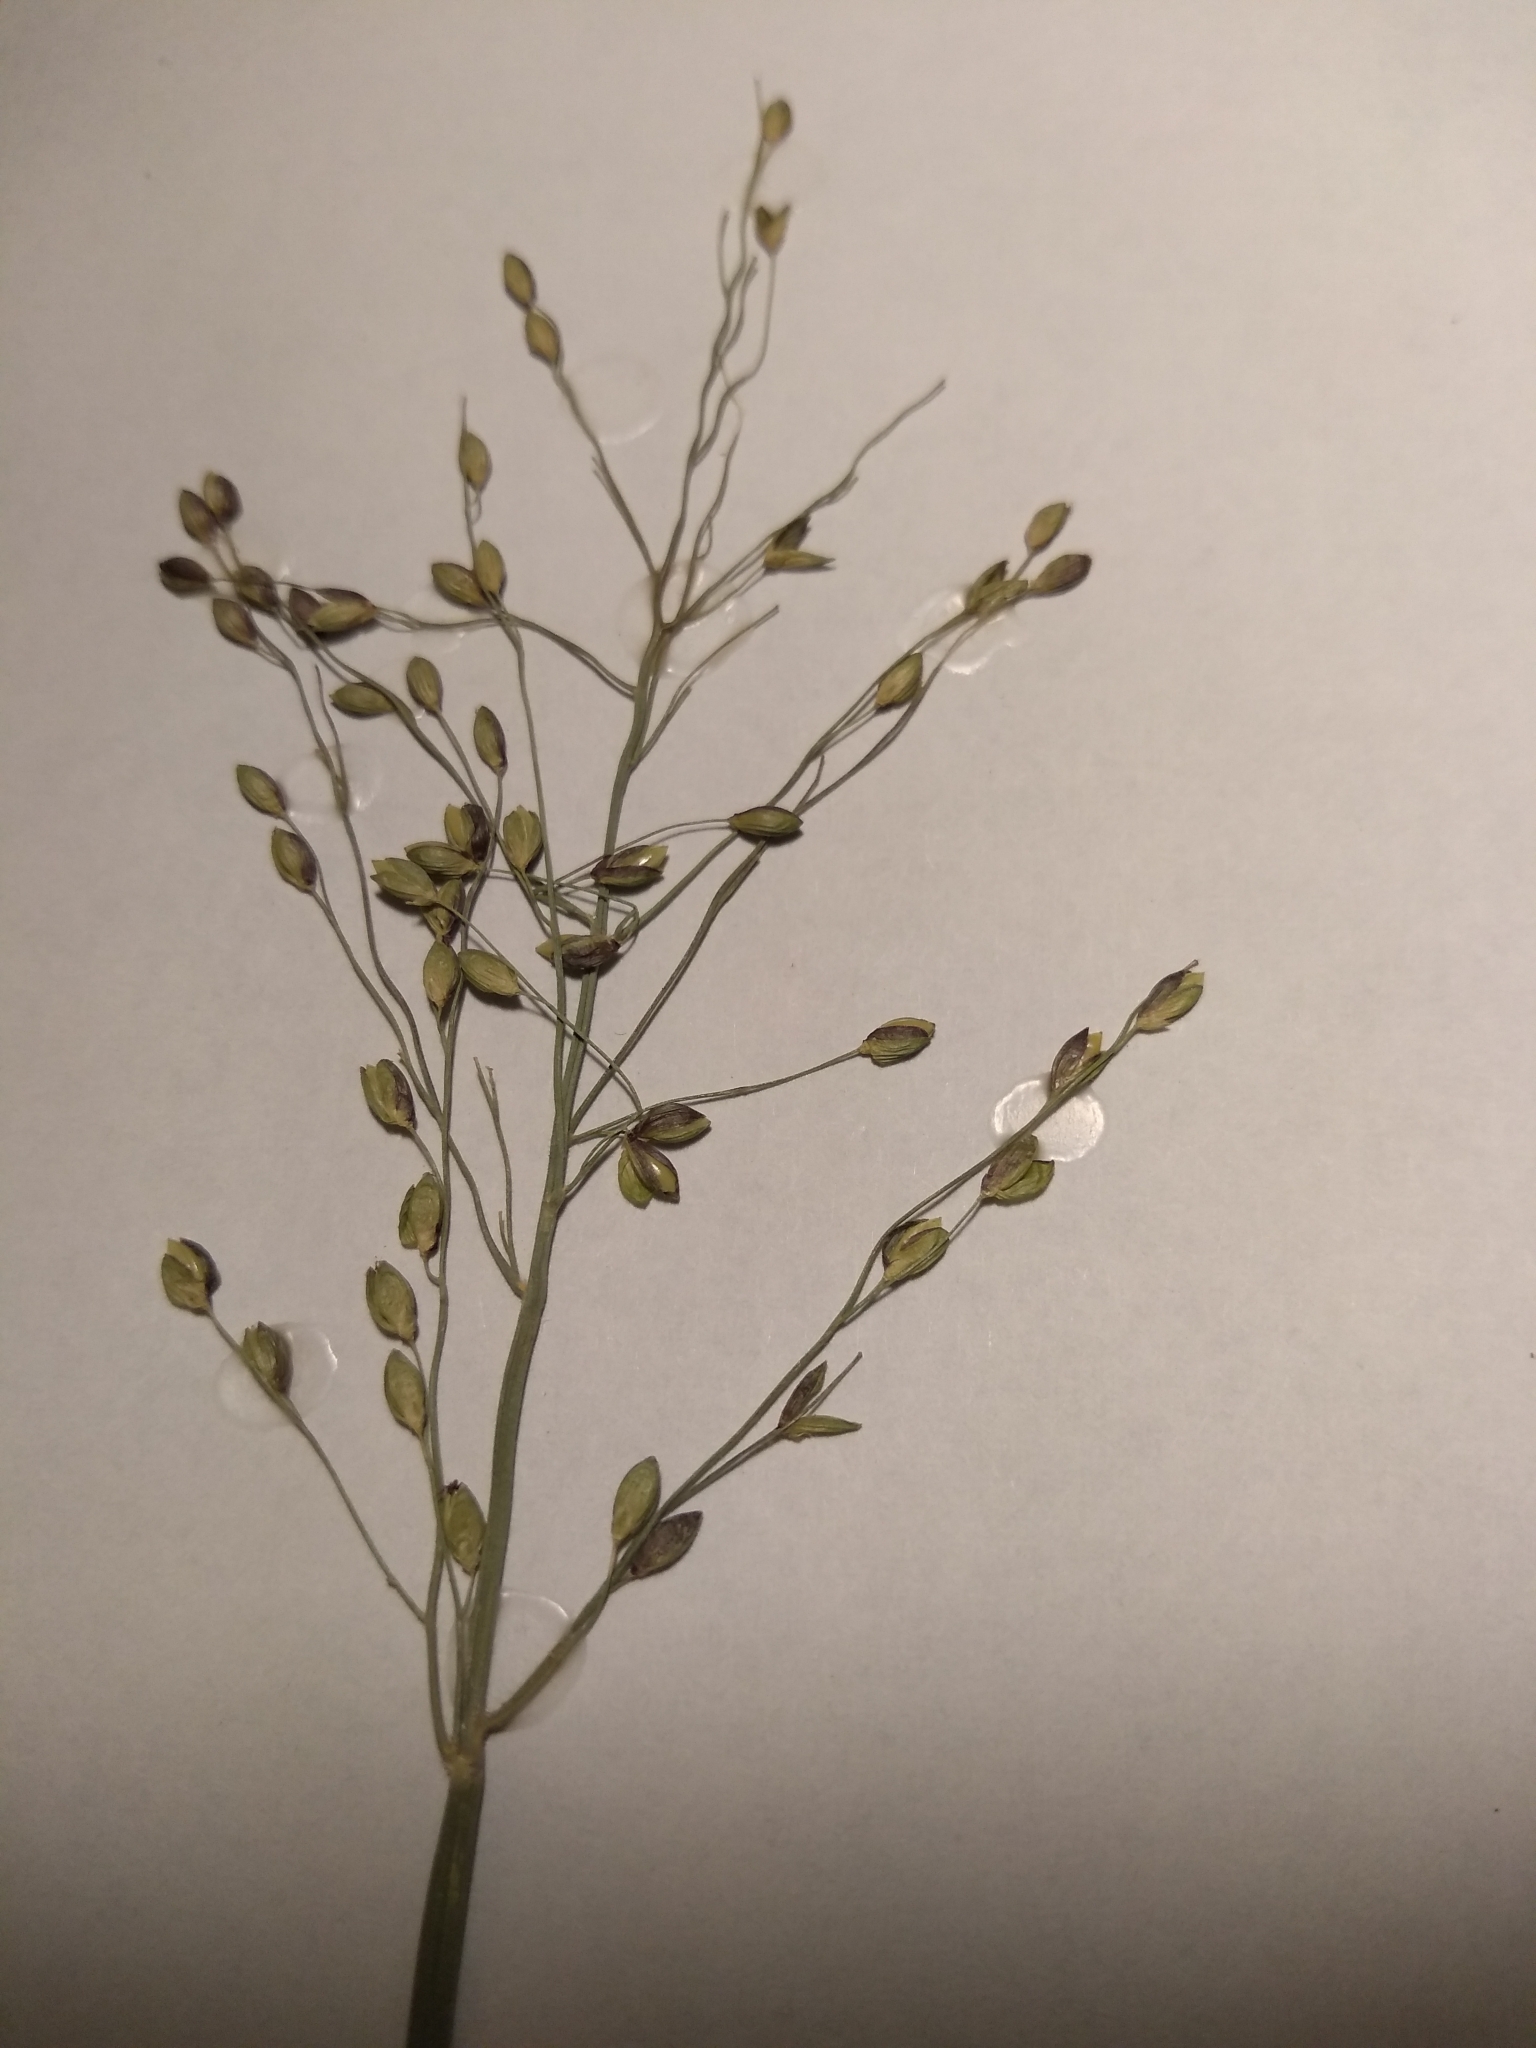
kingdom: Plantae
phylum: Tracheophyta
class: Liliopsida
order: Poales
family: Poaceae
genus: Dichanthelium
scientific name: Dichanthelium clandestinum
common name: Deer-tongue grass
